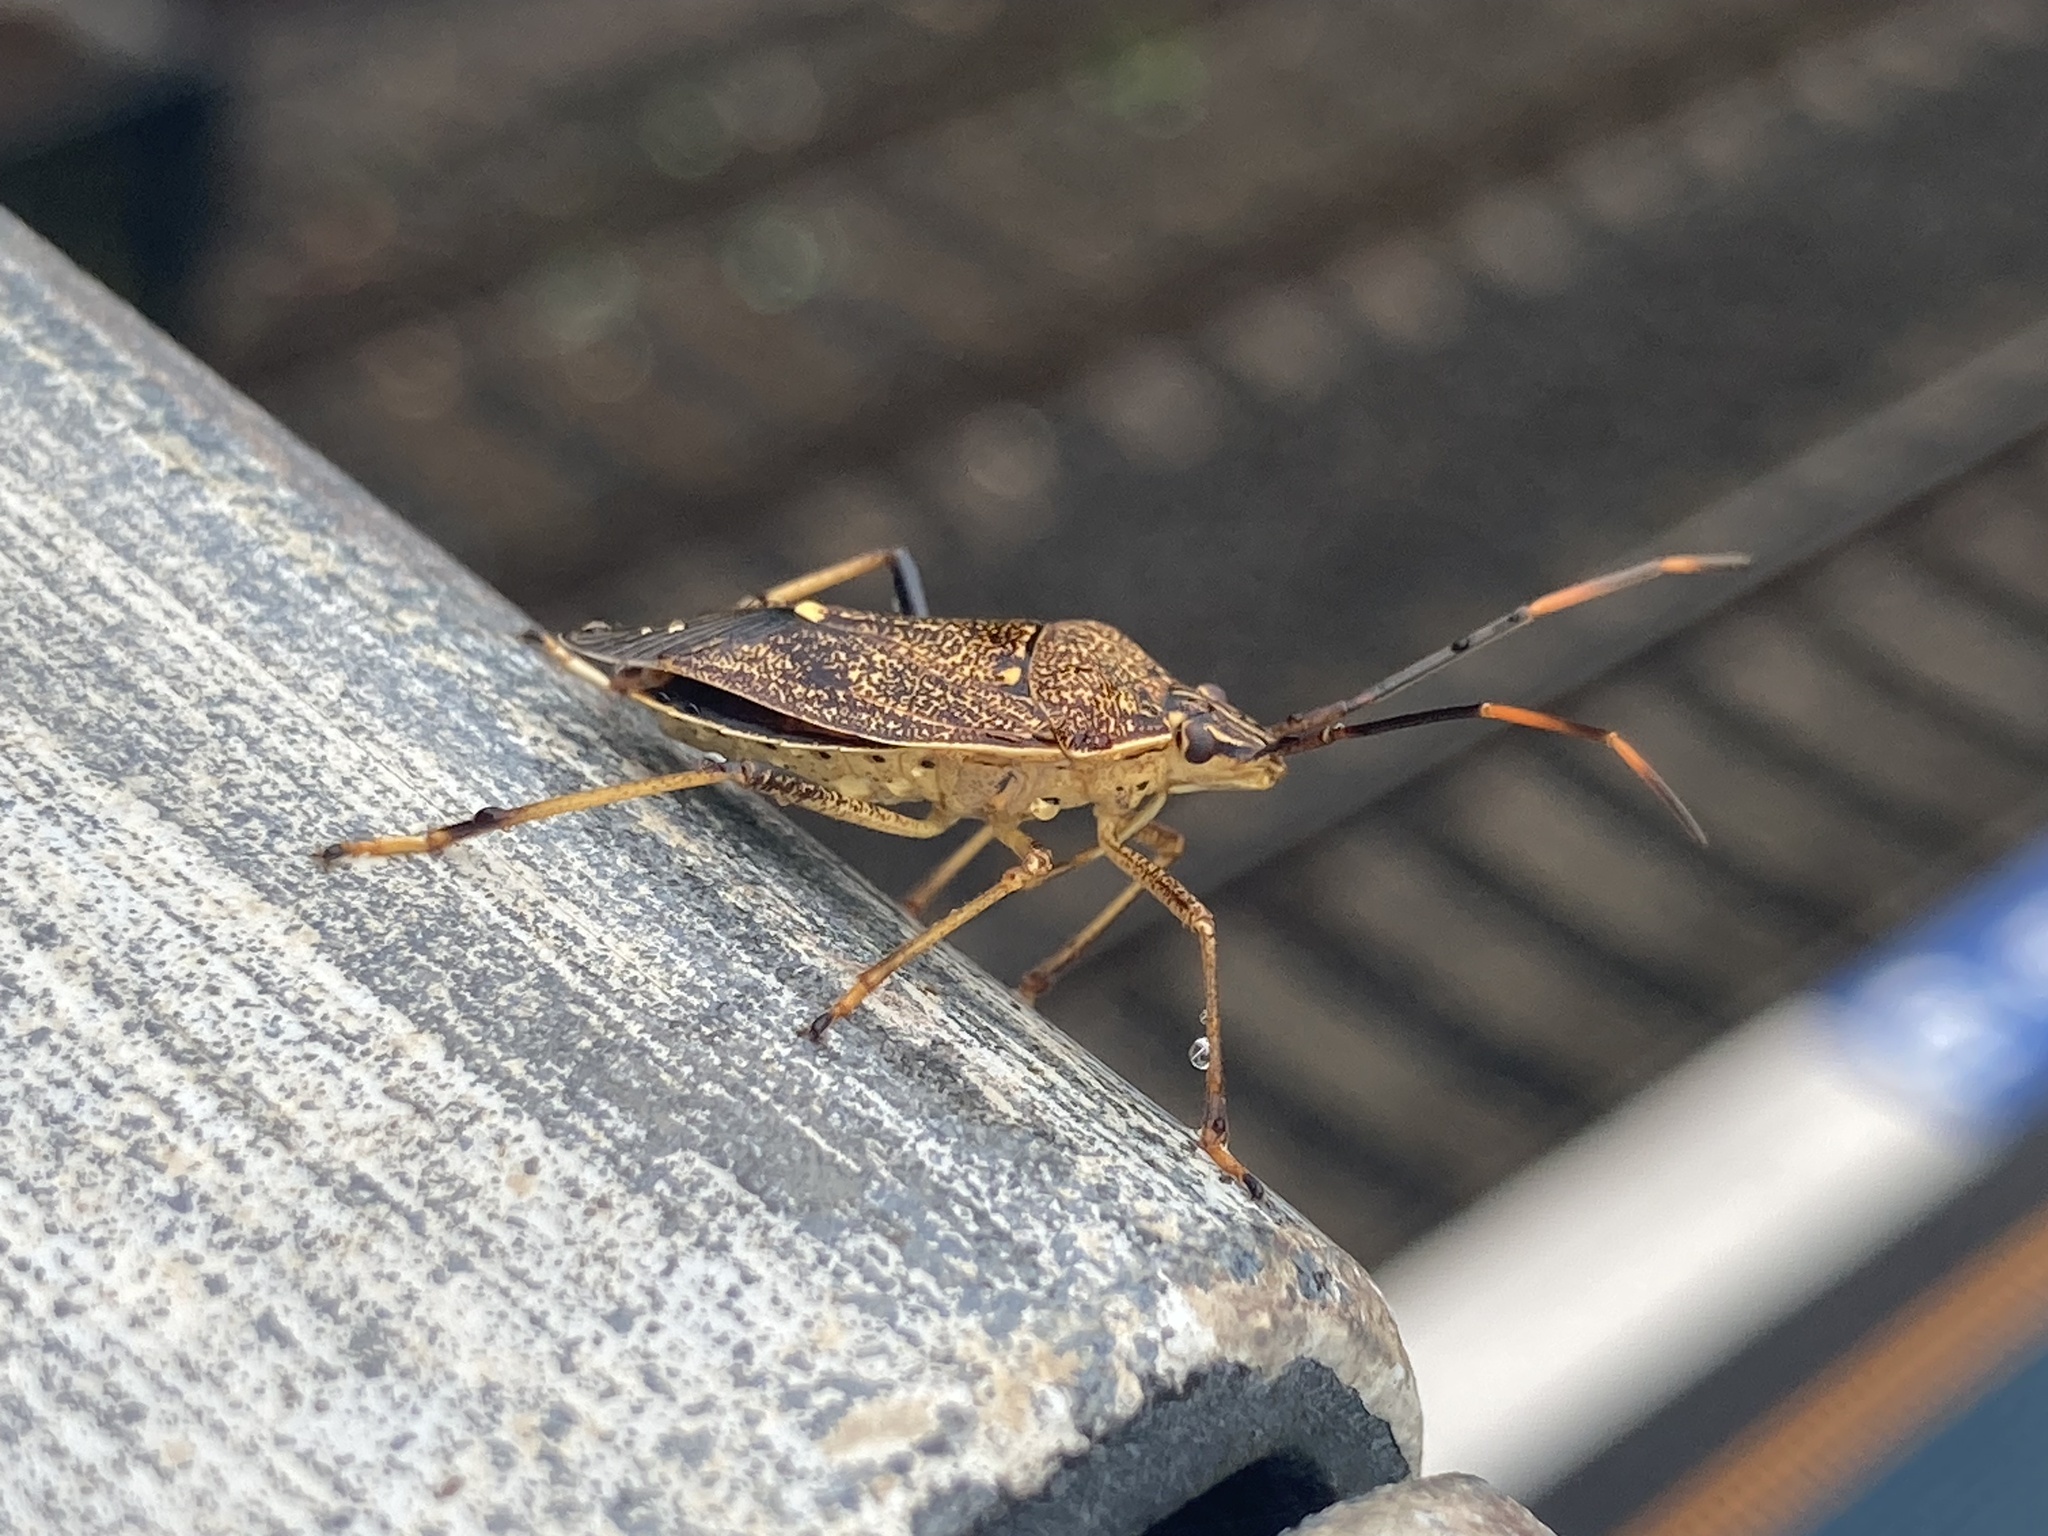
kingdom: Animalia
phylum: Arthropoda
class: Insecta
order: Hemiptera
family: Pentatomidae
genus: Poecilometis
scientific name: Poecilometis
